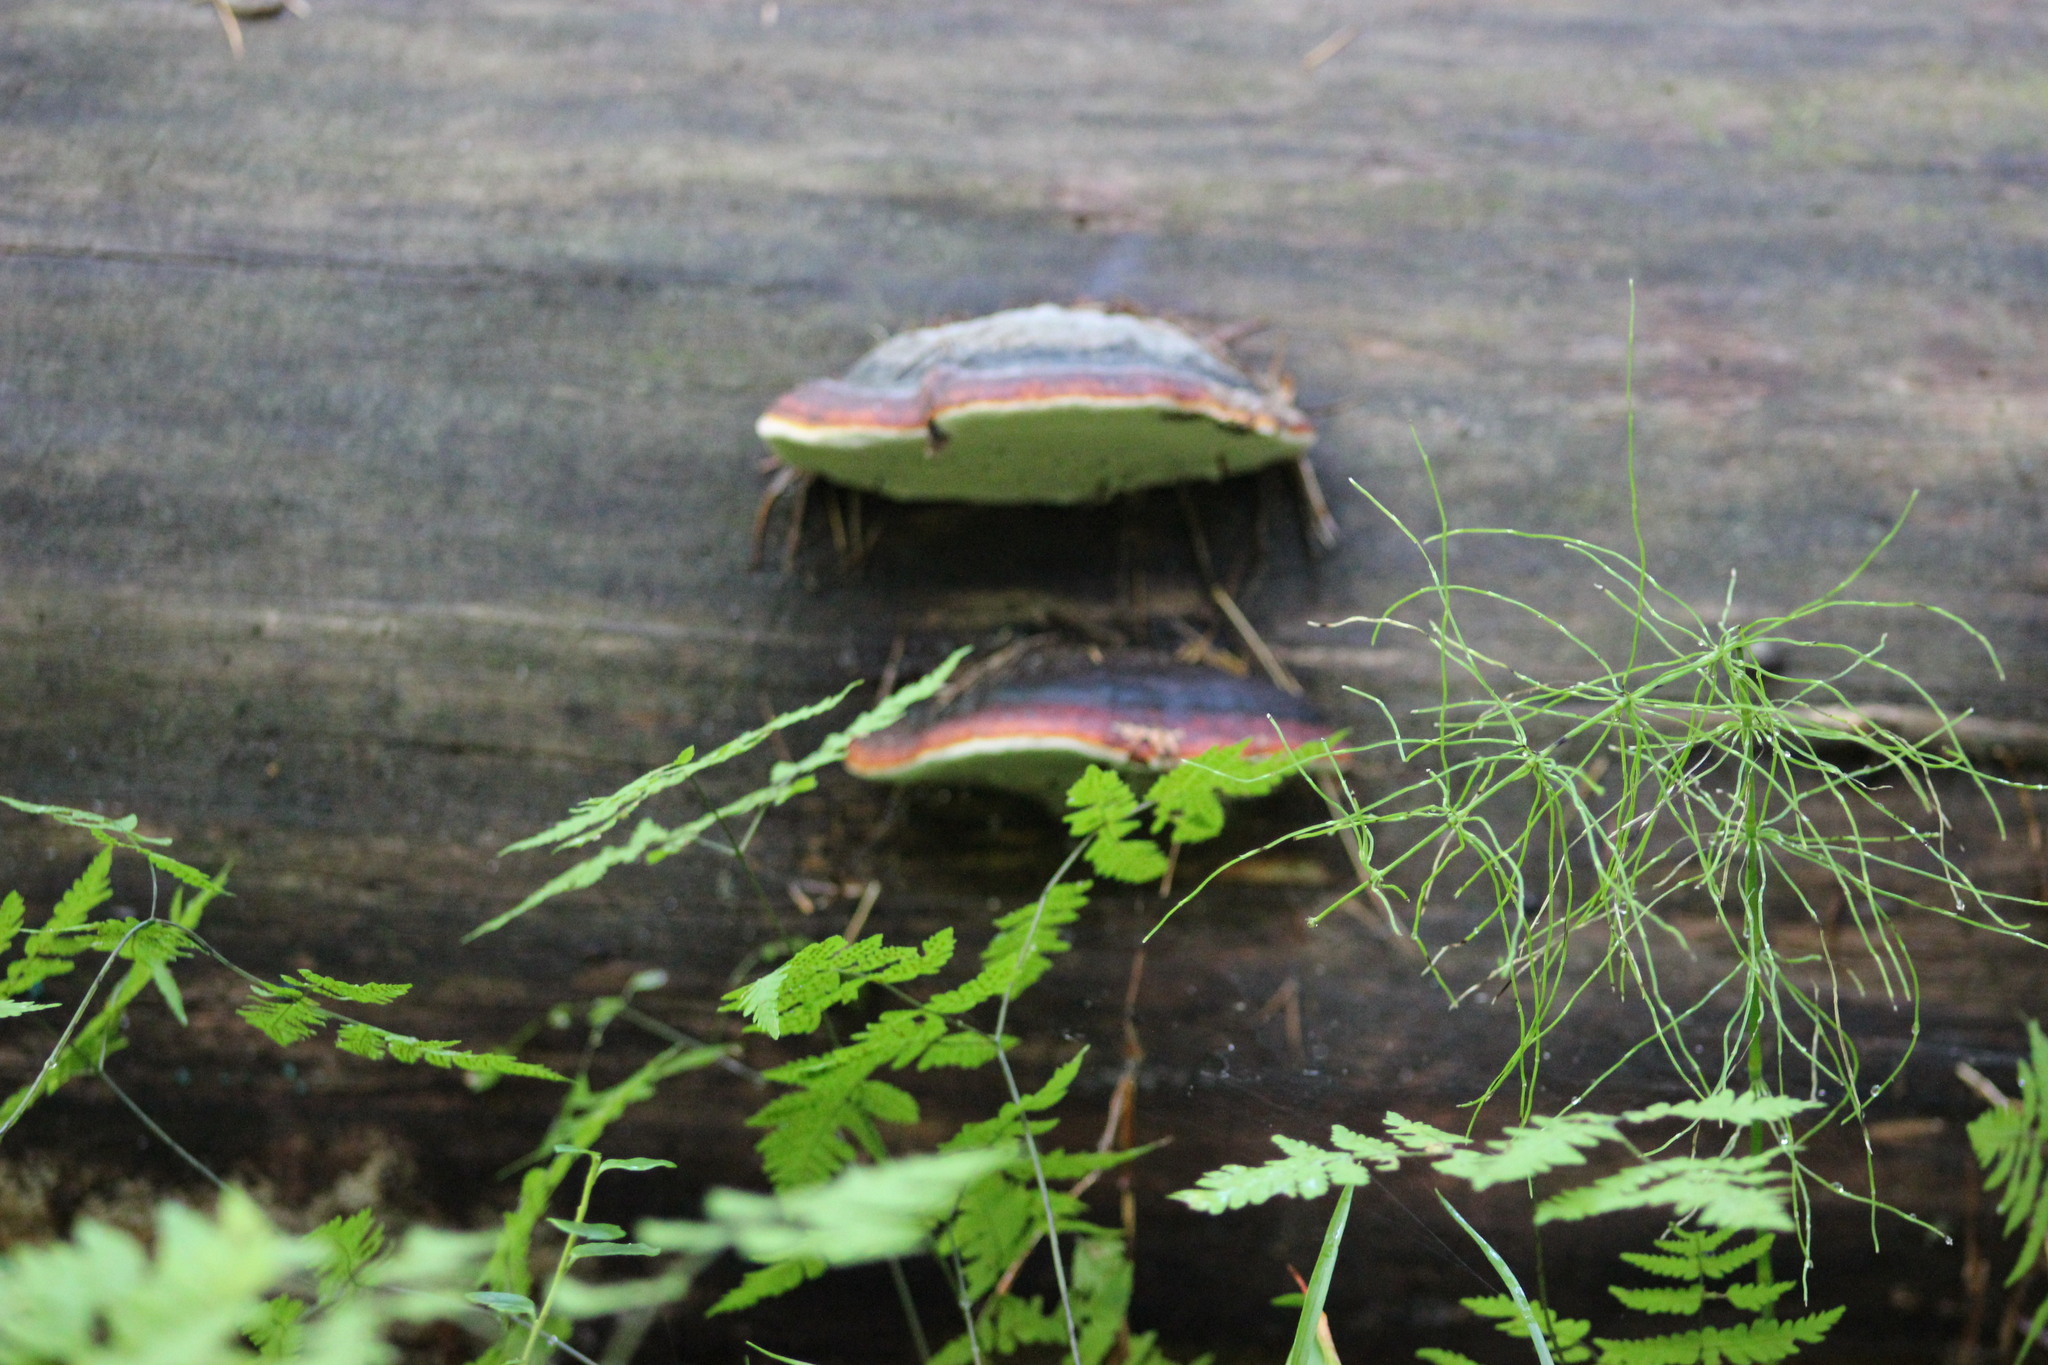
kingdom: Fungi
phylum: Basidiomycota
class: Agaricomycetes
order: Polyporales
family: Fomitopsidaceae
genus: Fomitopsis
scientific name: Fomitopsis pinicola
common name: Red-belted bracket
